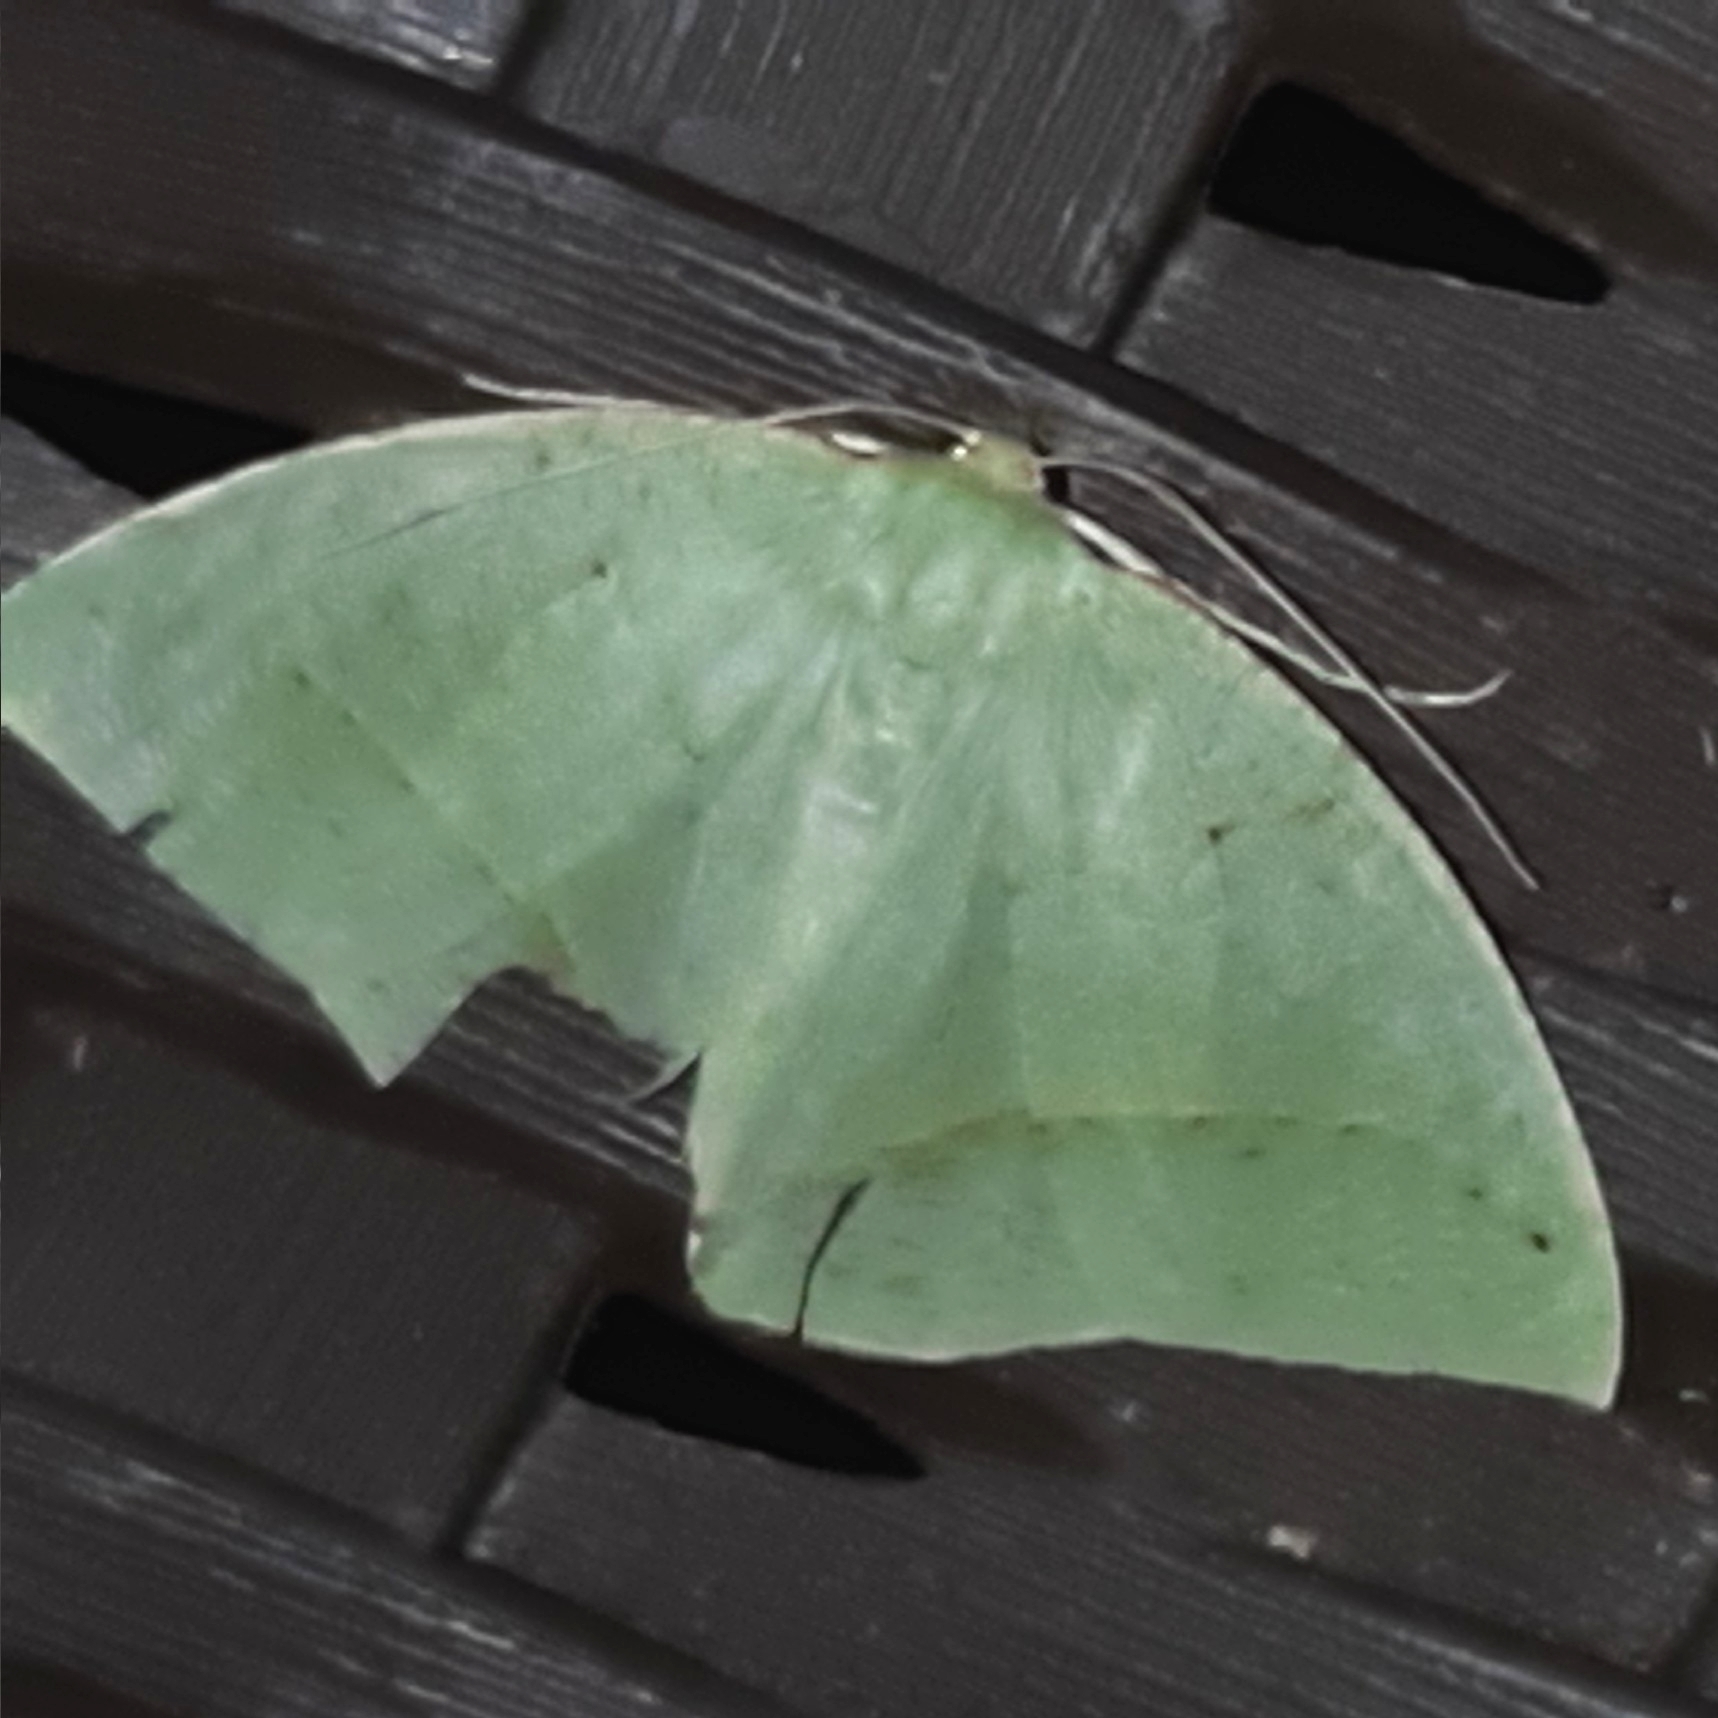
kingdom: Animalia
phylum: Arthropoda
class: Insecta
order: Lepidoptera
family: Geometridae
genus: Phyle
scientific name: Phyle schausaria
